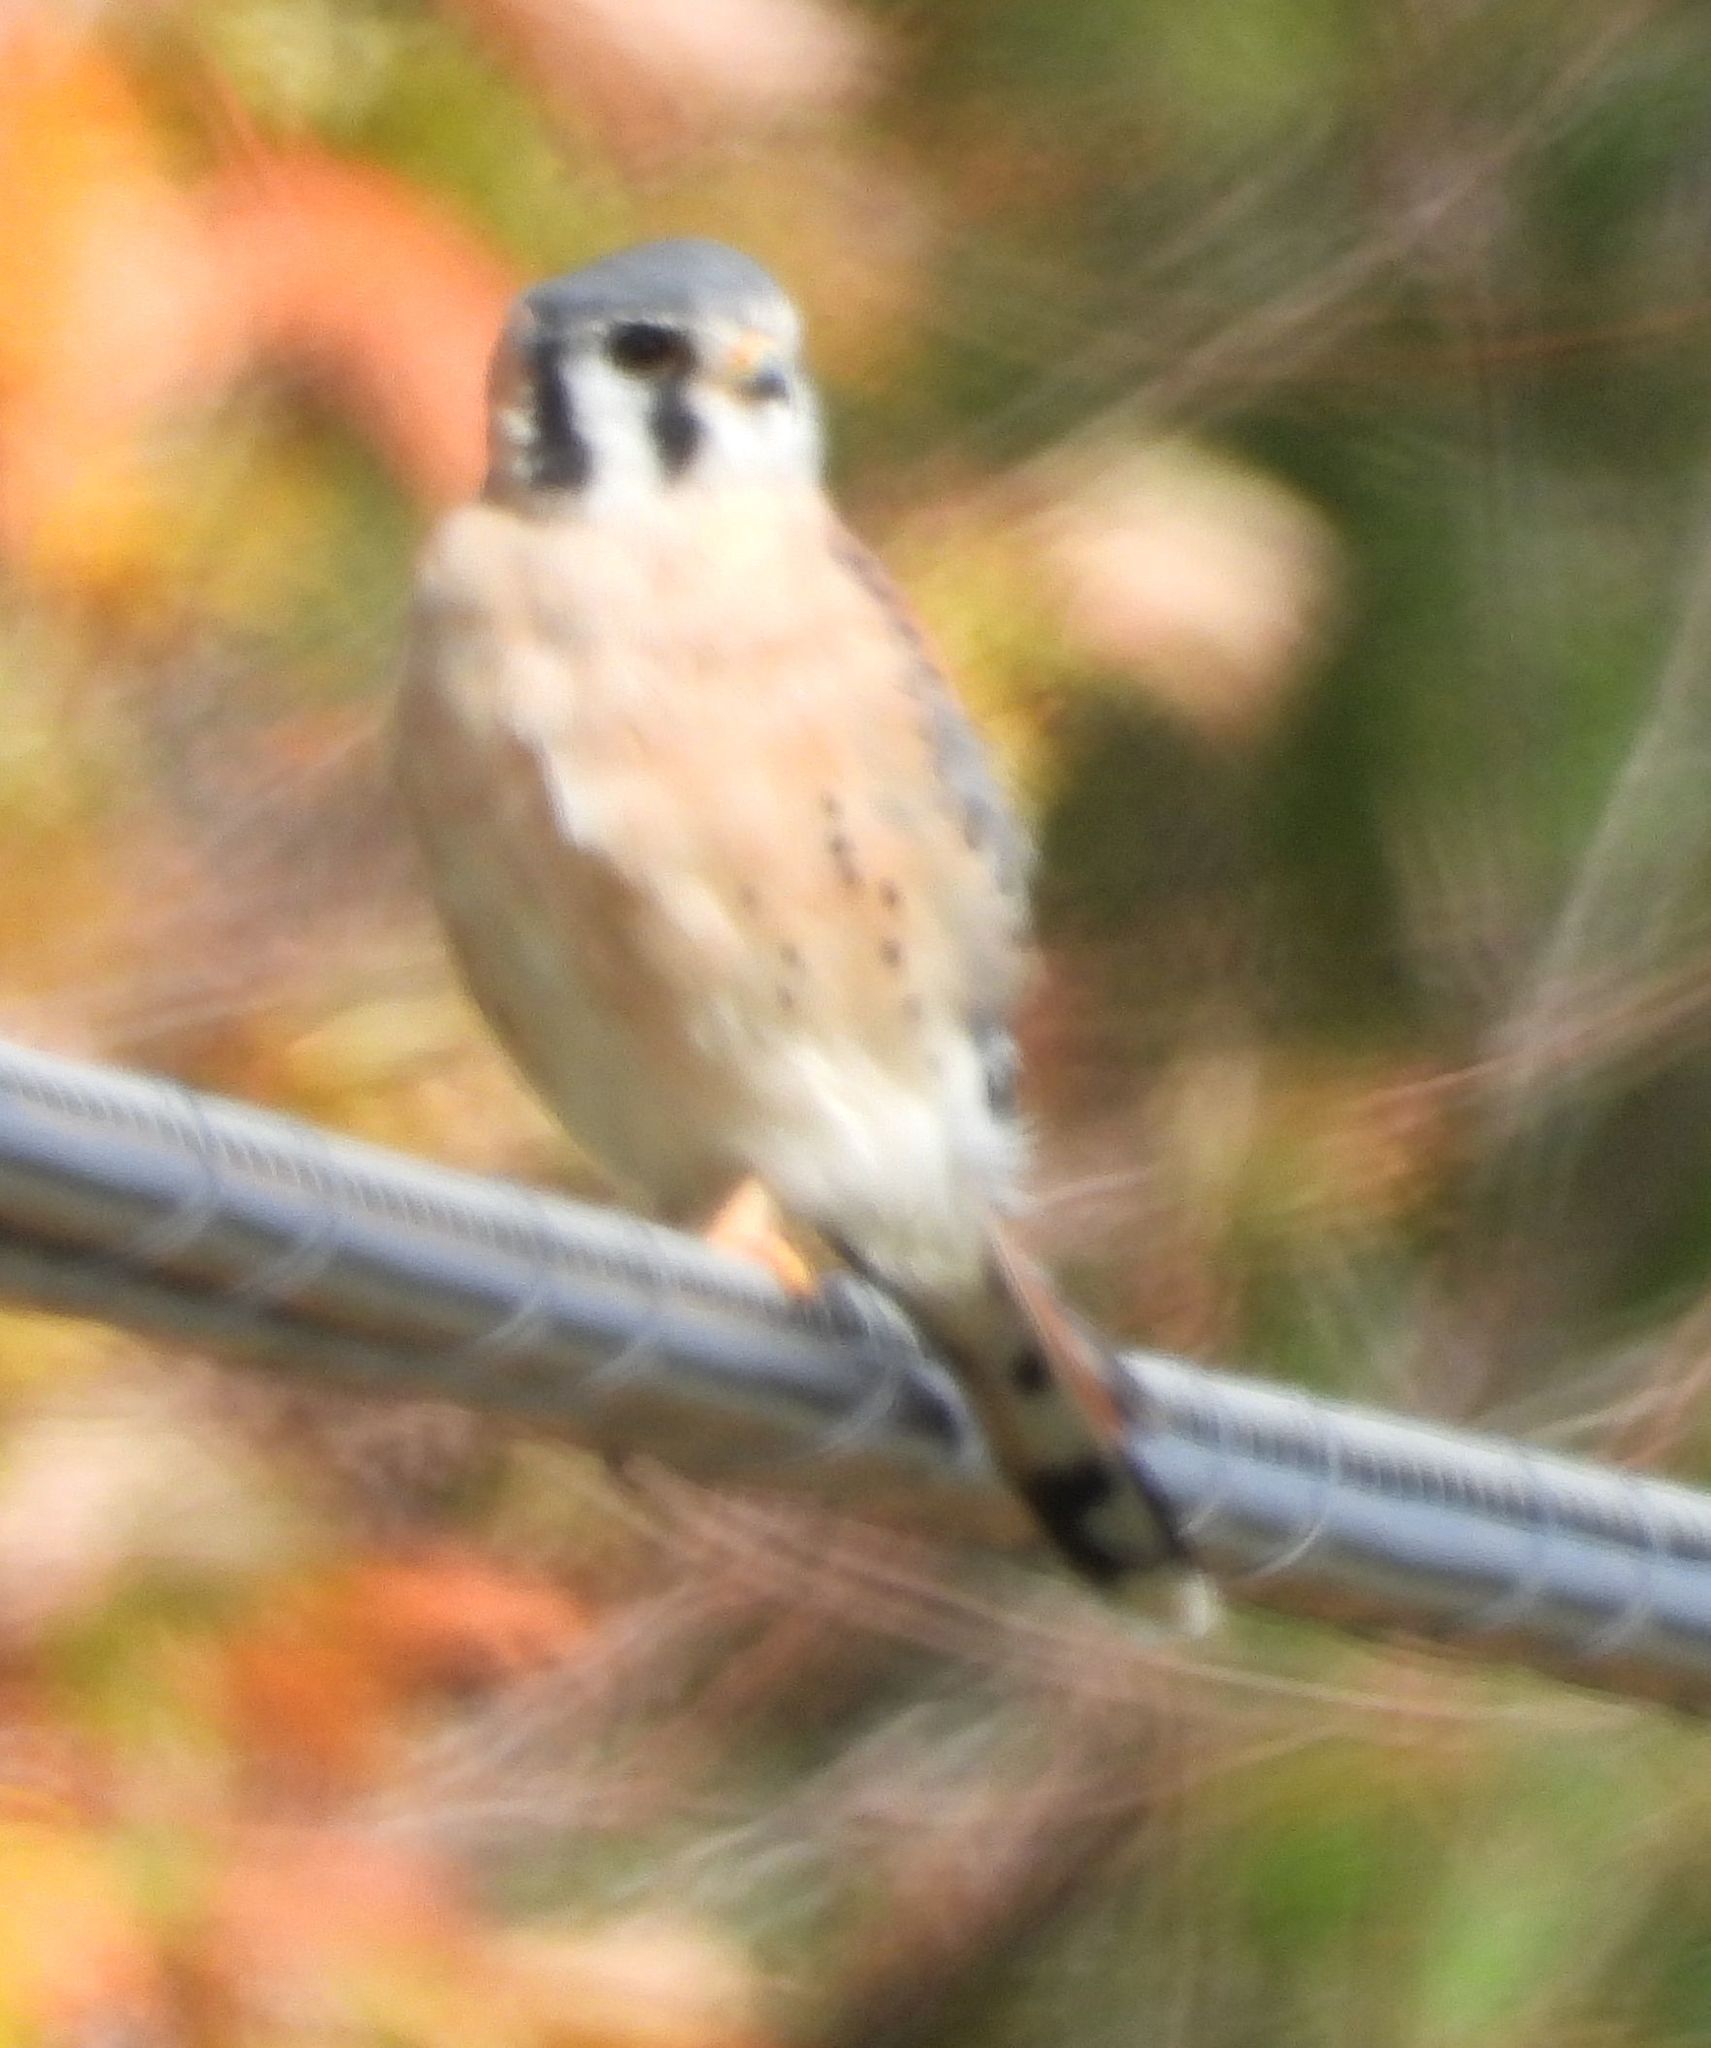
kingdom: Animalia
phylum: Chordata
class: Aves
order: Falconiformes
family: Falconidae
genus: Falco
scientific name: Falco sparverius
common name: American kestrel
